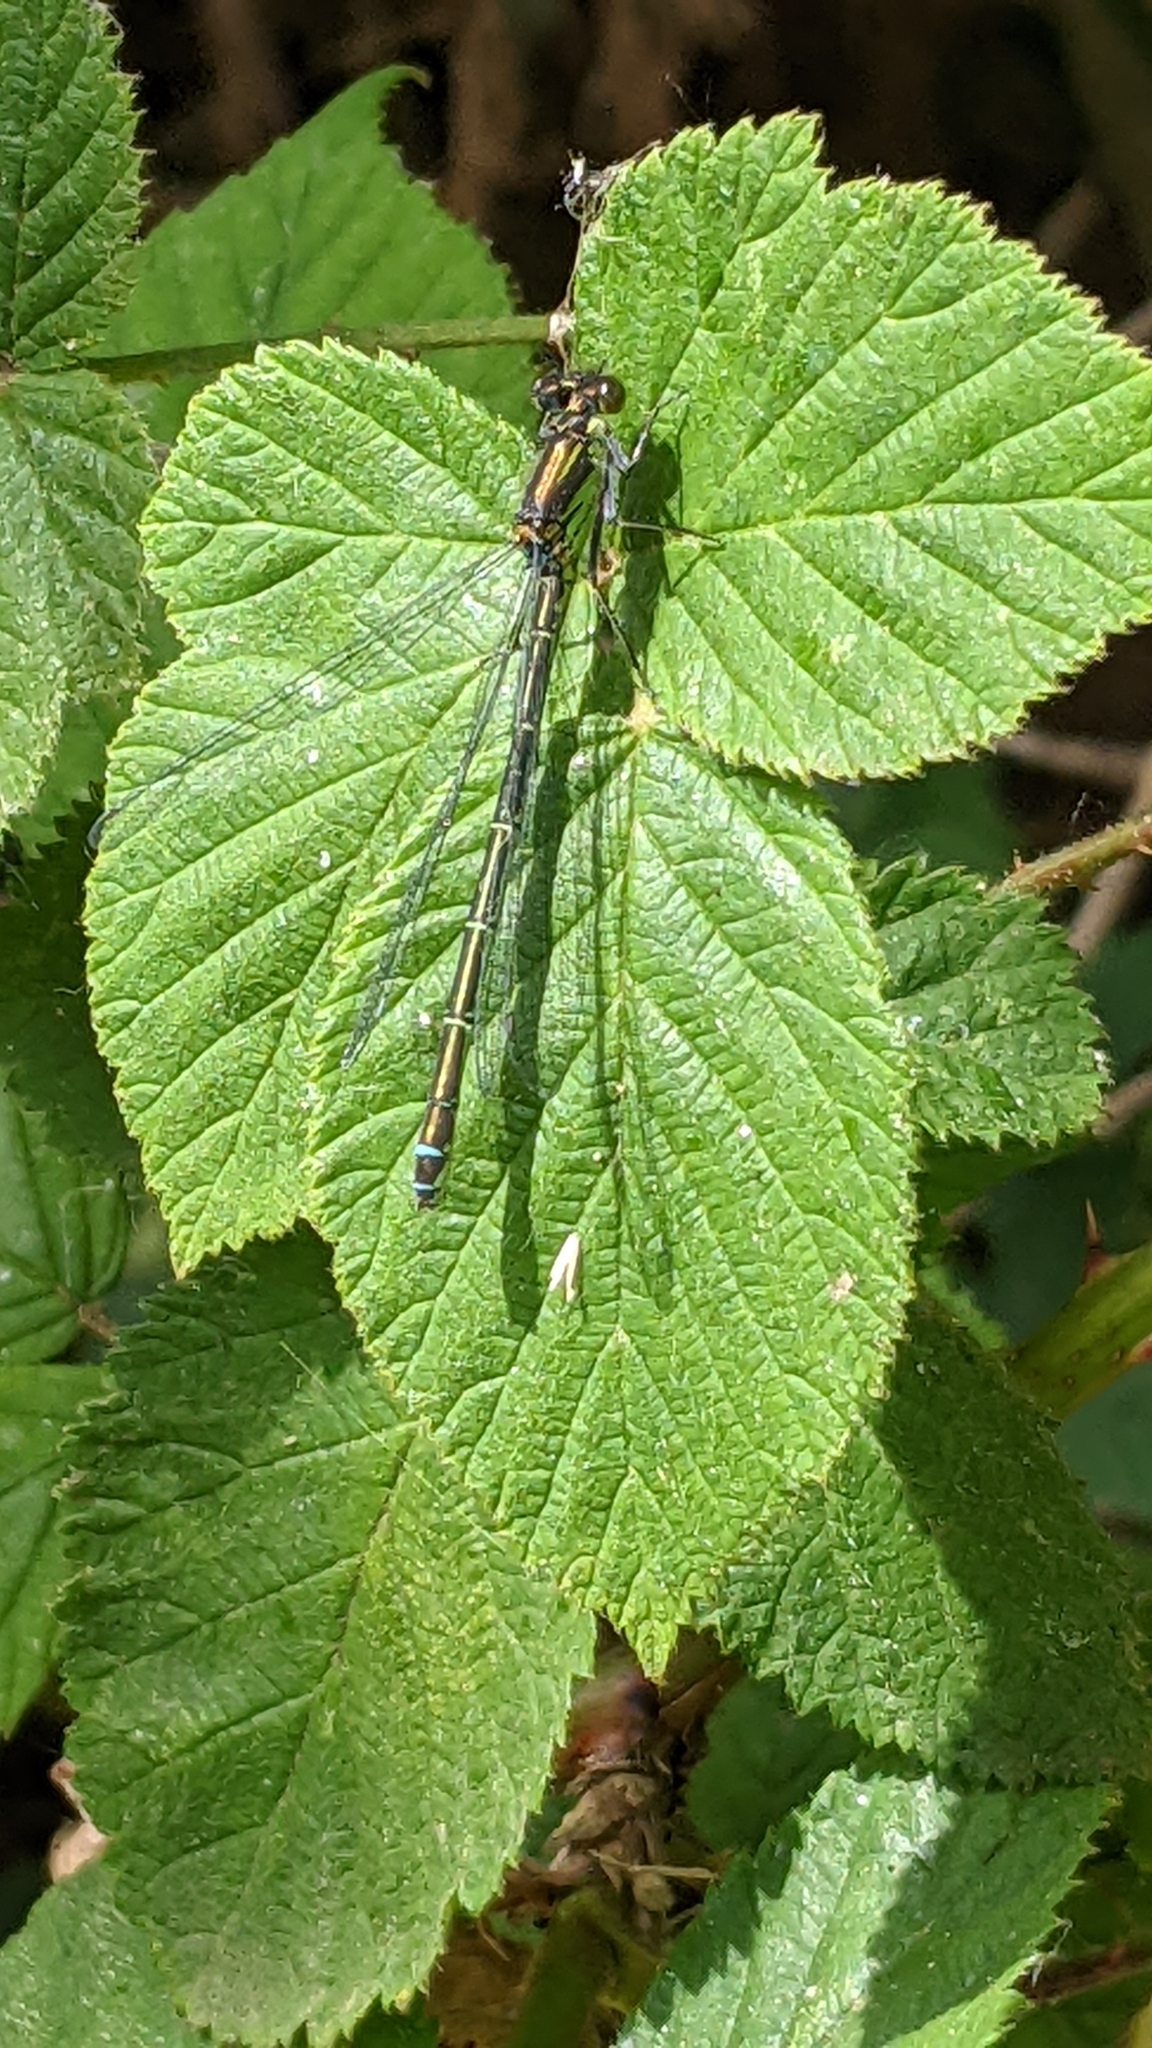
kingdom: Animalia
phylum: Arthropoda
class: Insecta
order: Odonata
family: Lestidae
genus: Lestes
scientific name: Lestes sponsa
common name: Common spreadwing
